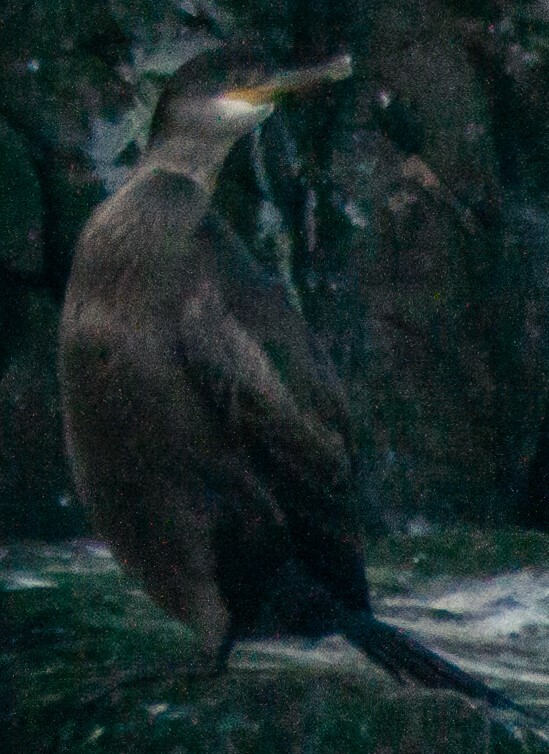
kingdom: Animalia
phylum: Chordata
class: Aves
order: Suliformes
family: Phalacrocoracidae
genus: Phalacrocorax
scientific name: Phalacrocorax aristotelis
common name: European shag
